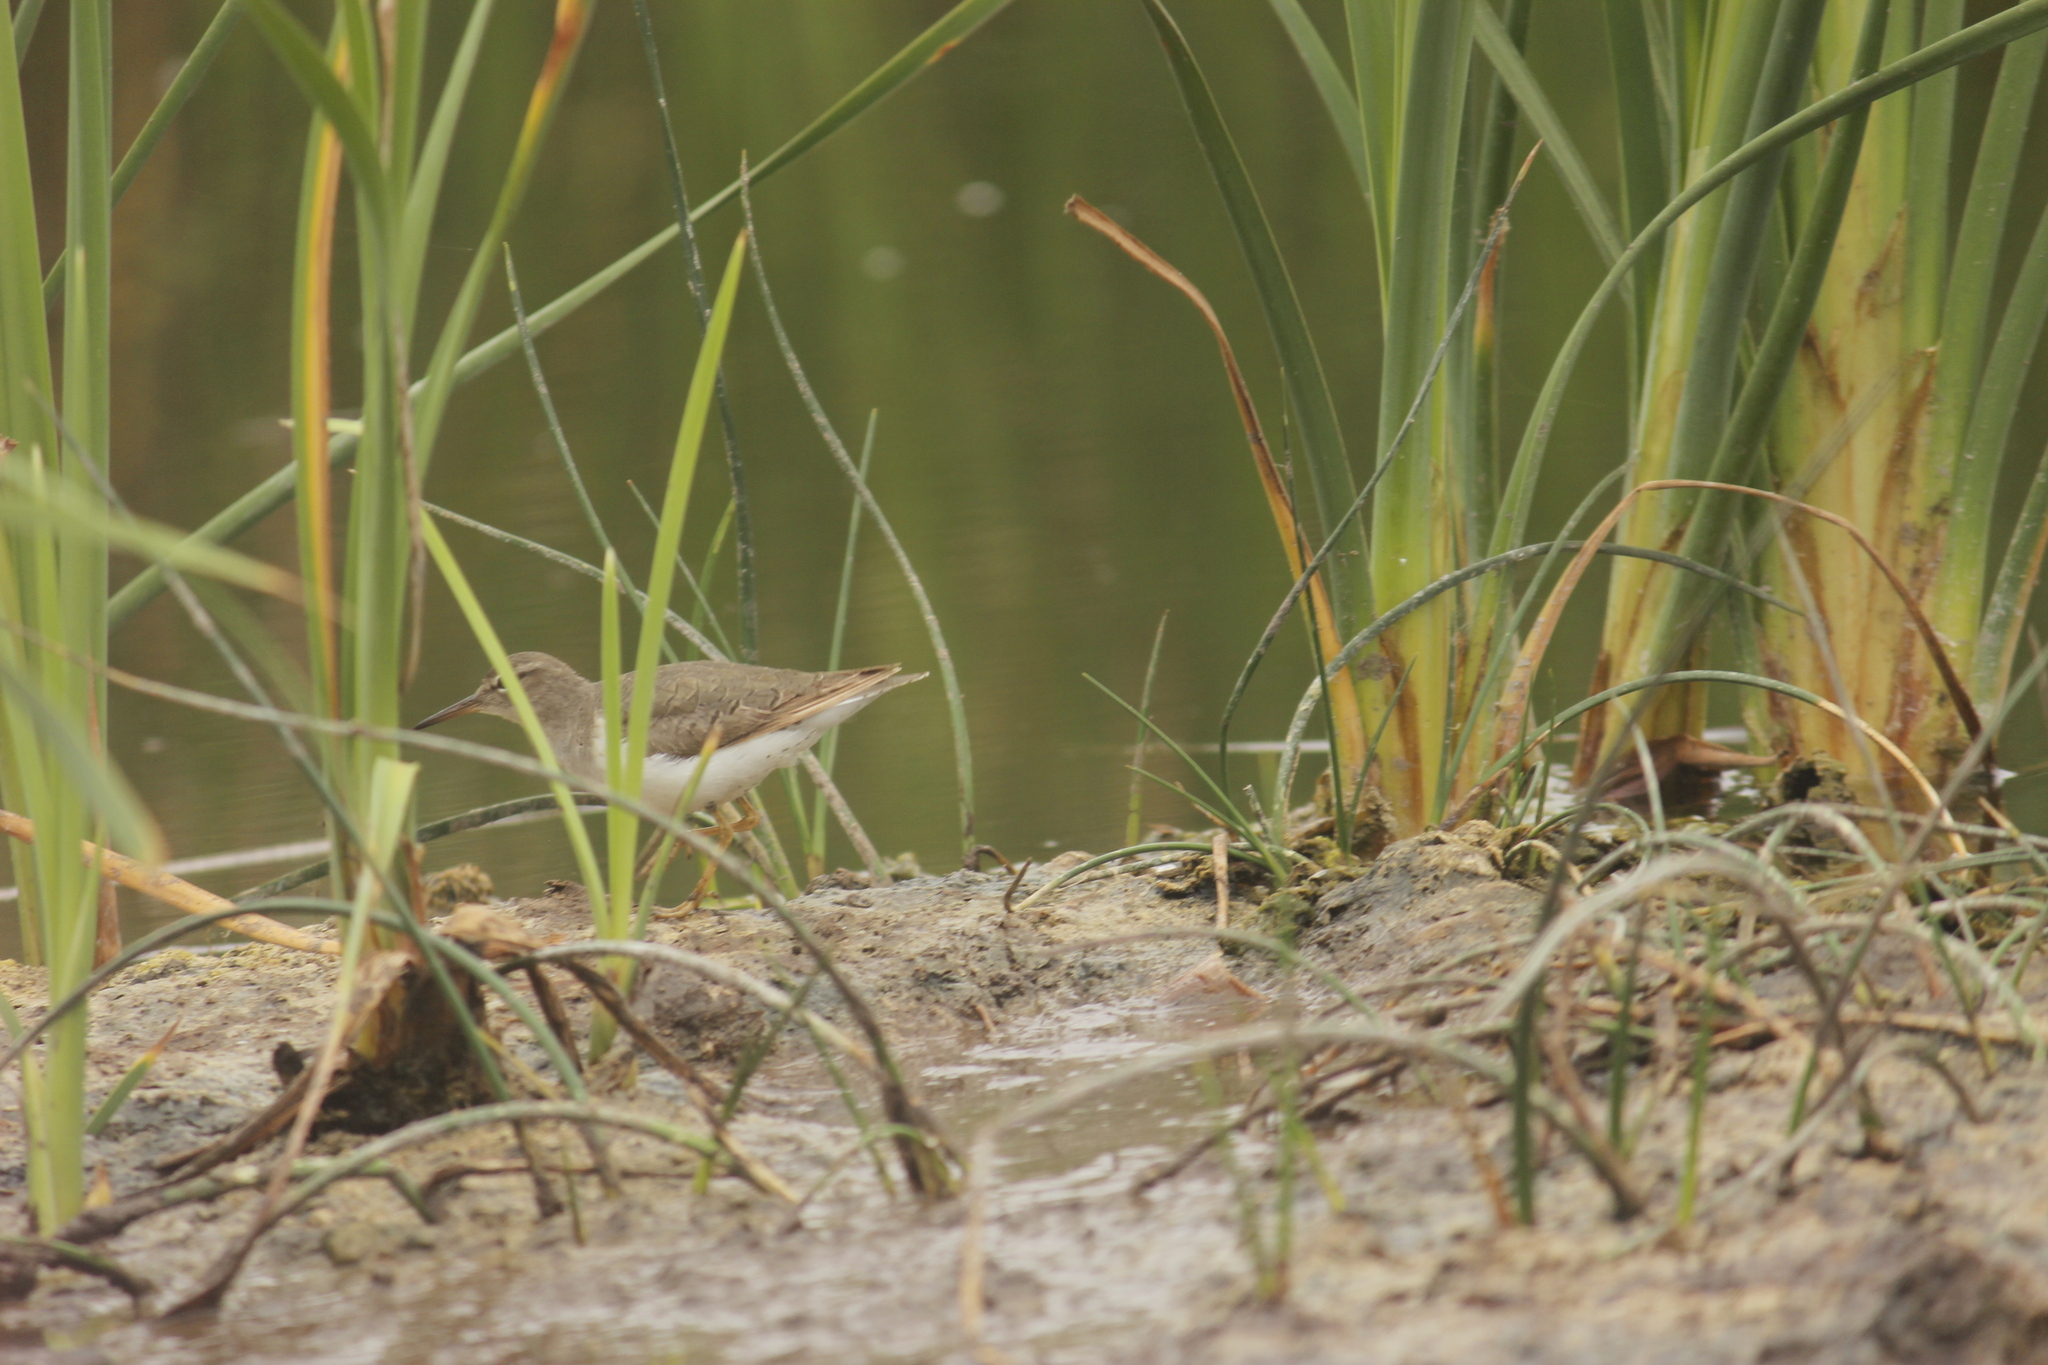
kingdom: Animalia
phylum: Chordata
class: Aves
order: Charadriiformes
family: Scolopacidae
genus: Actitis
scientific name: Actitis macularius
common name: Spotted sandpiper
